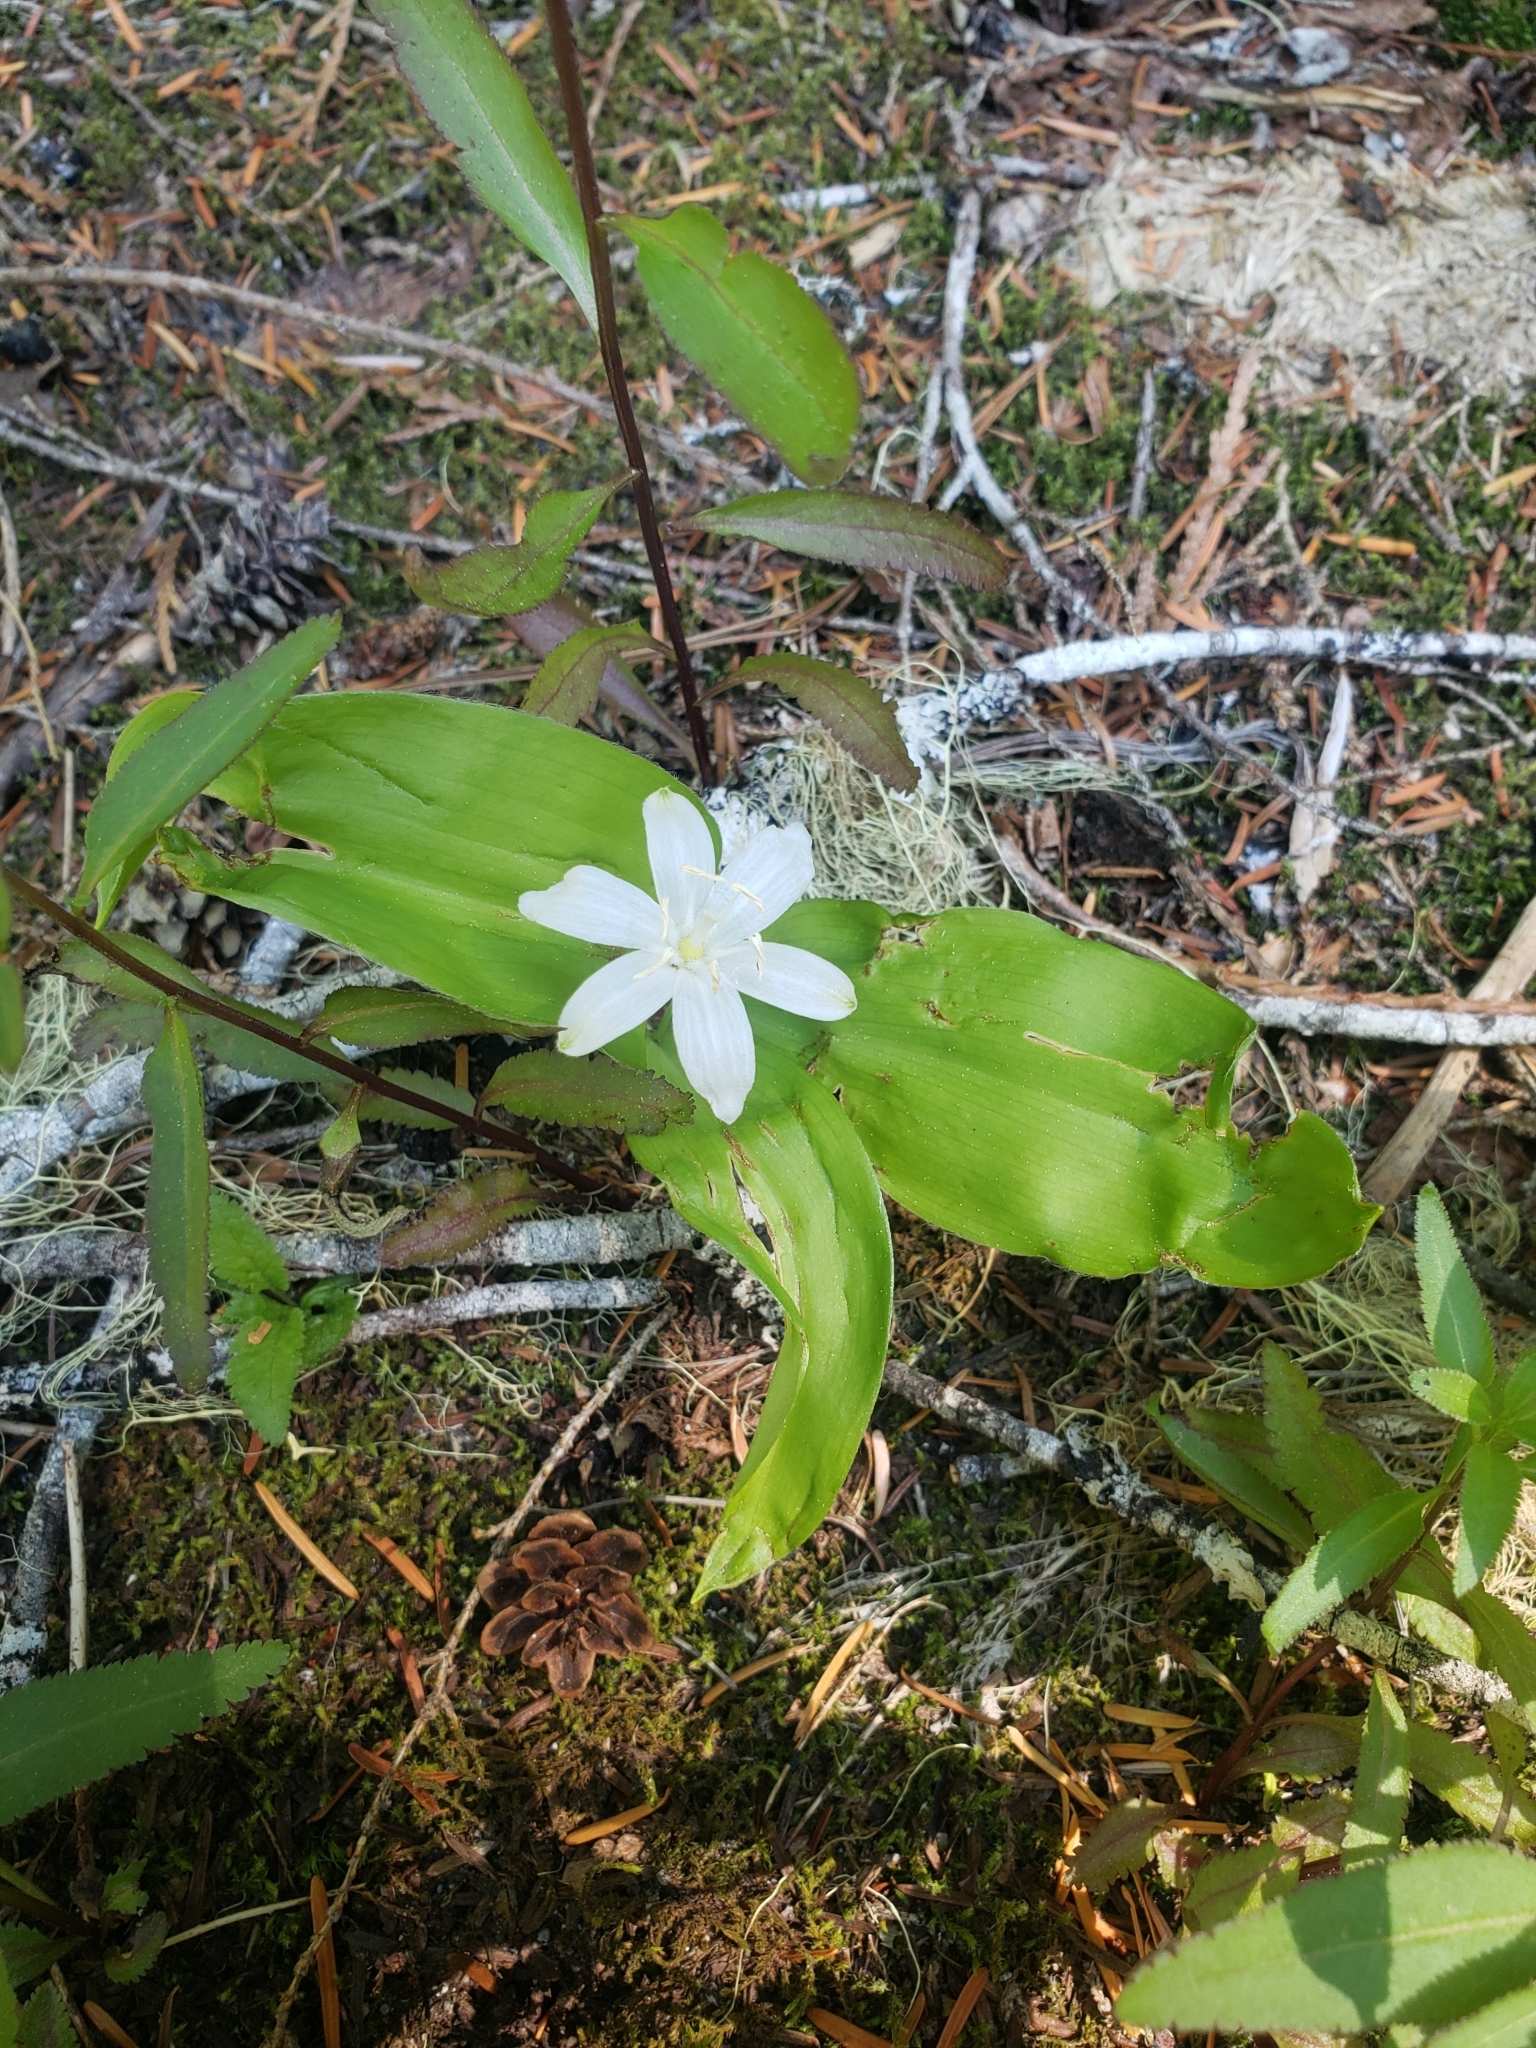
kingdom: Plantae
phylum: Tracheophyta
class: Liliopsida
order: Liliales
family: Liliaceae
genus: Clintonia
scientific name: Clintonia uniflora
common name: Queen's cup
